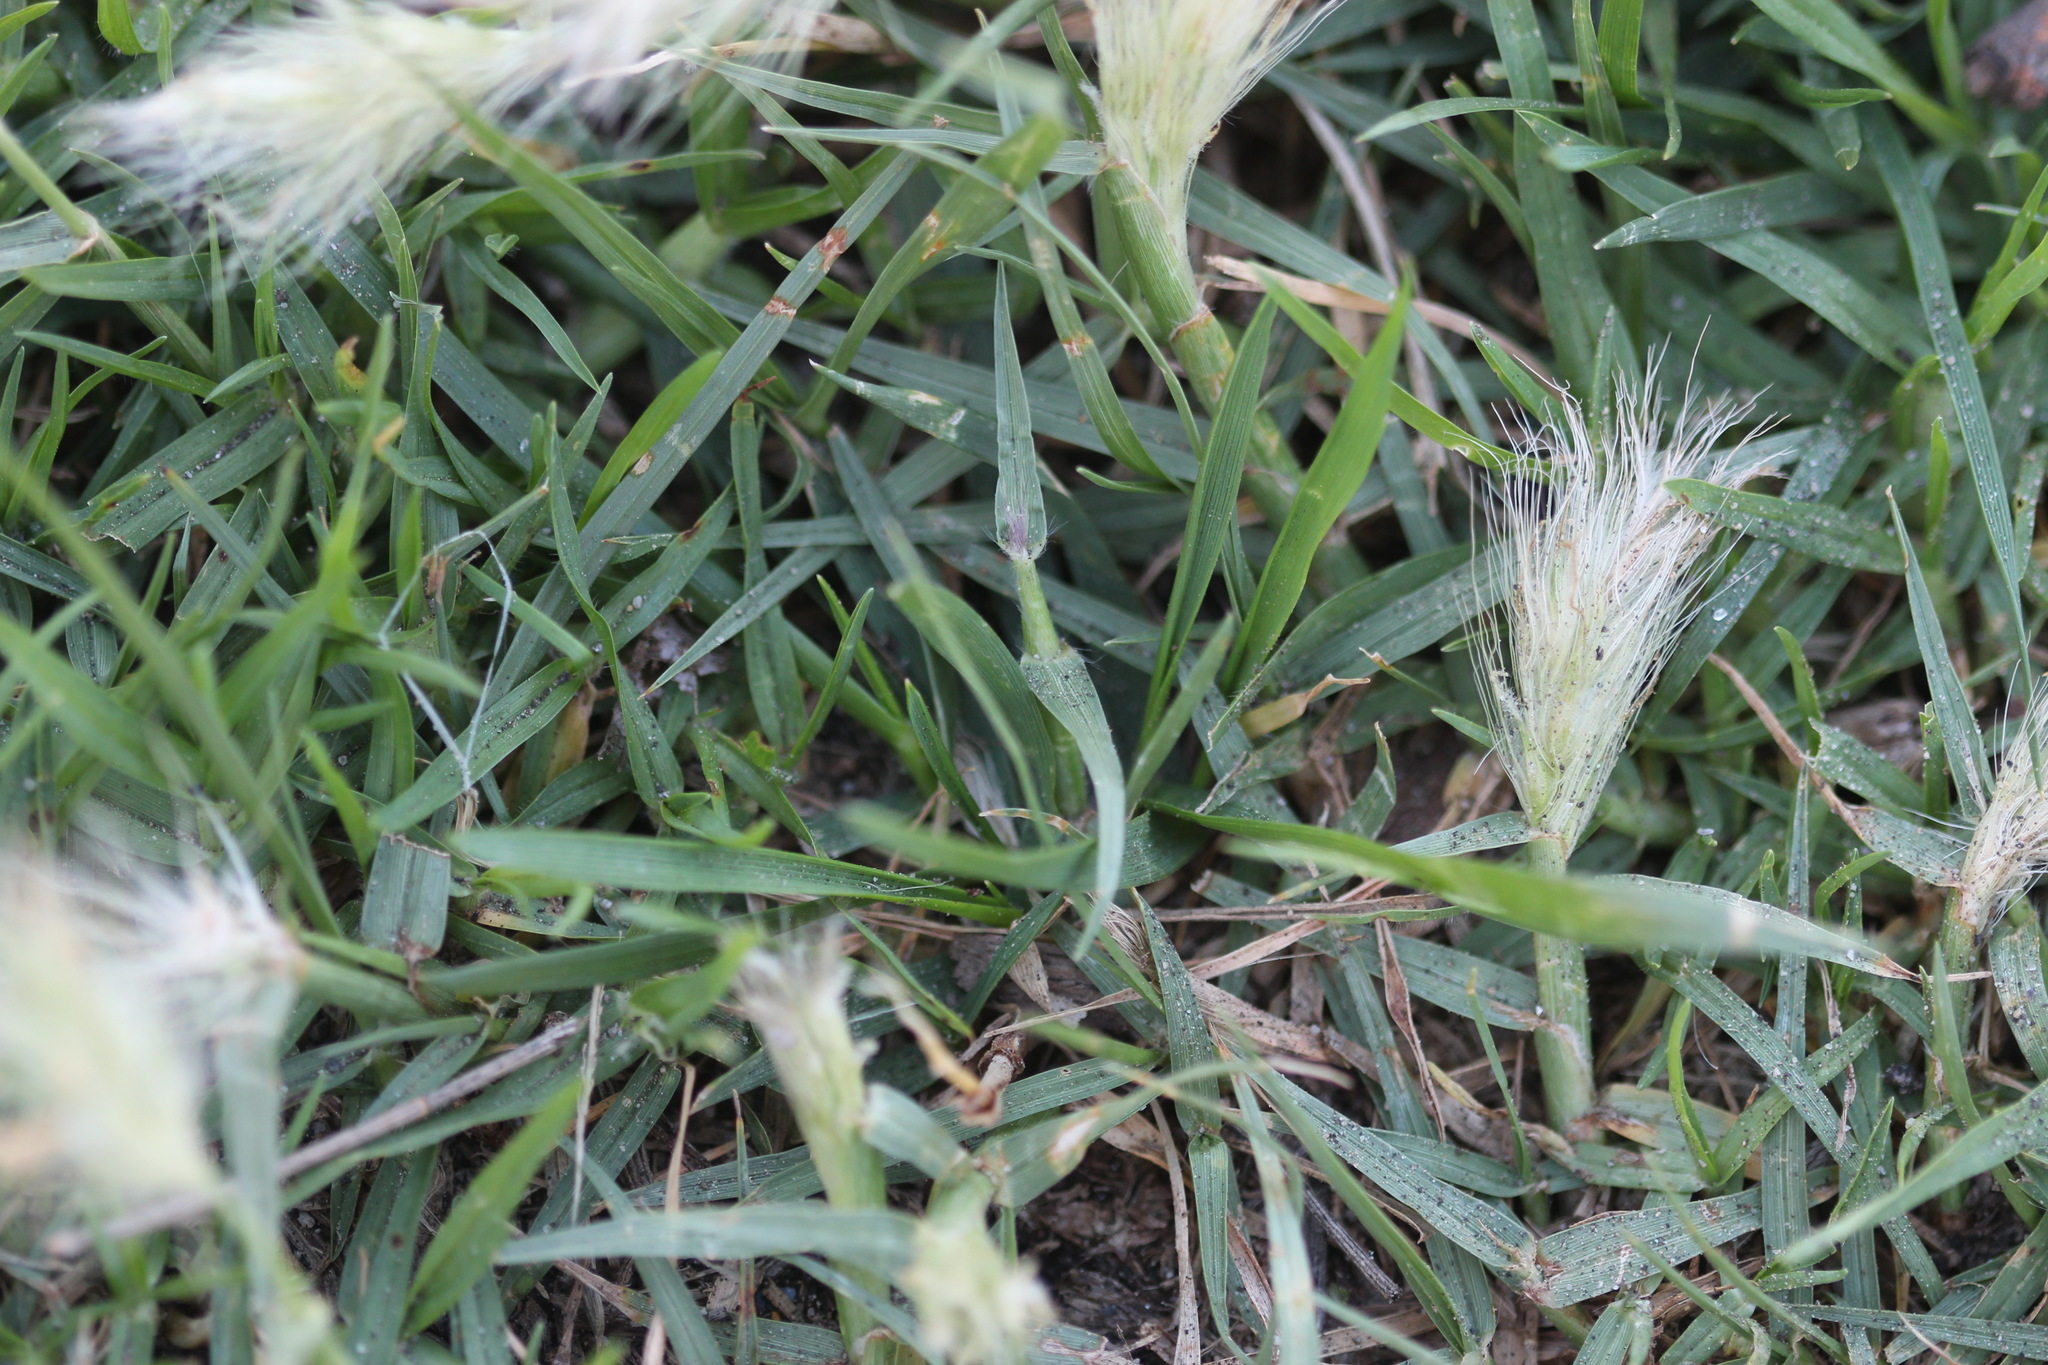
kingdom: Plantae
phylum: Tracheophyta
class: Liliopsida
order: Poales
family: Poaceae
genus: Cenchrus
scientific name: Cenchrus longisetus
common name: Feathertop
